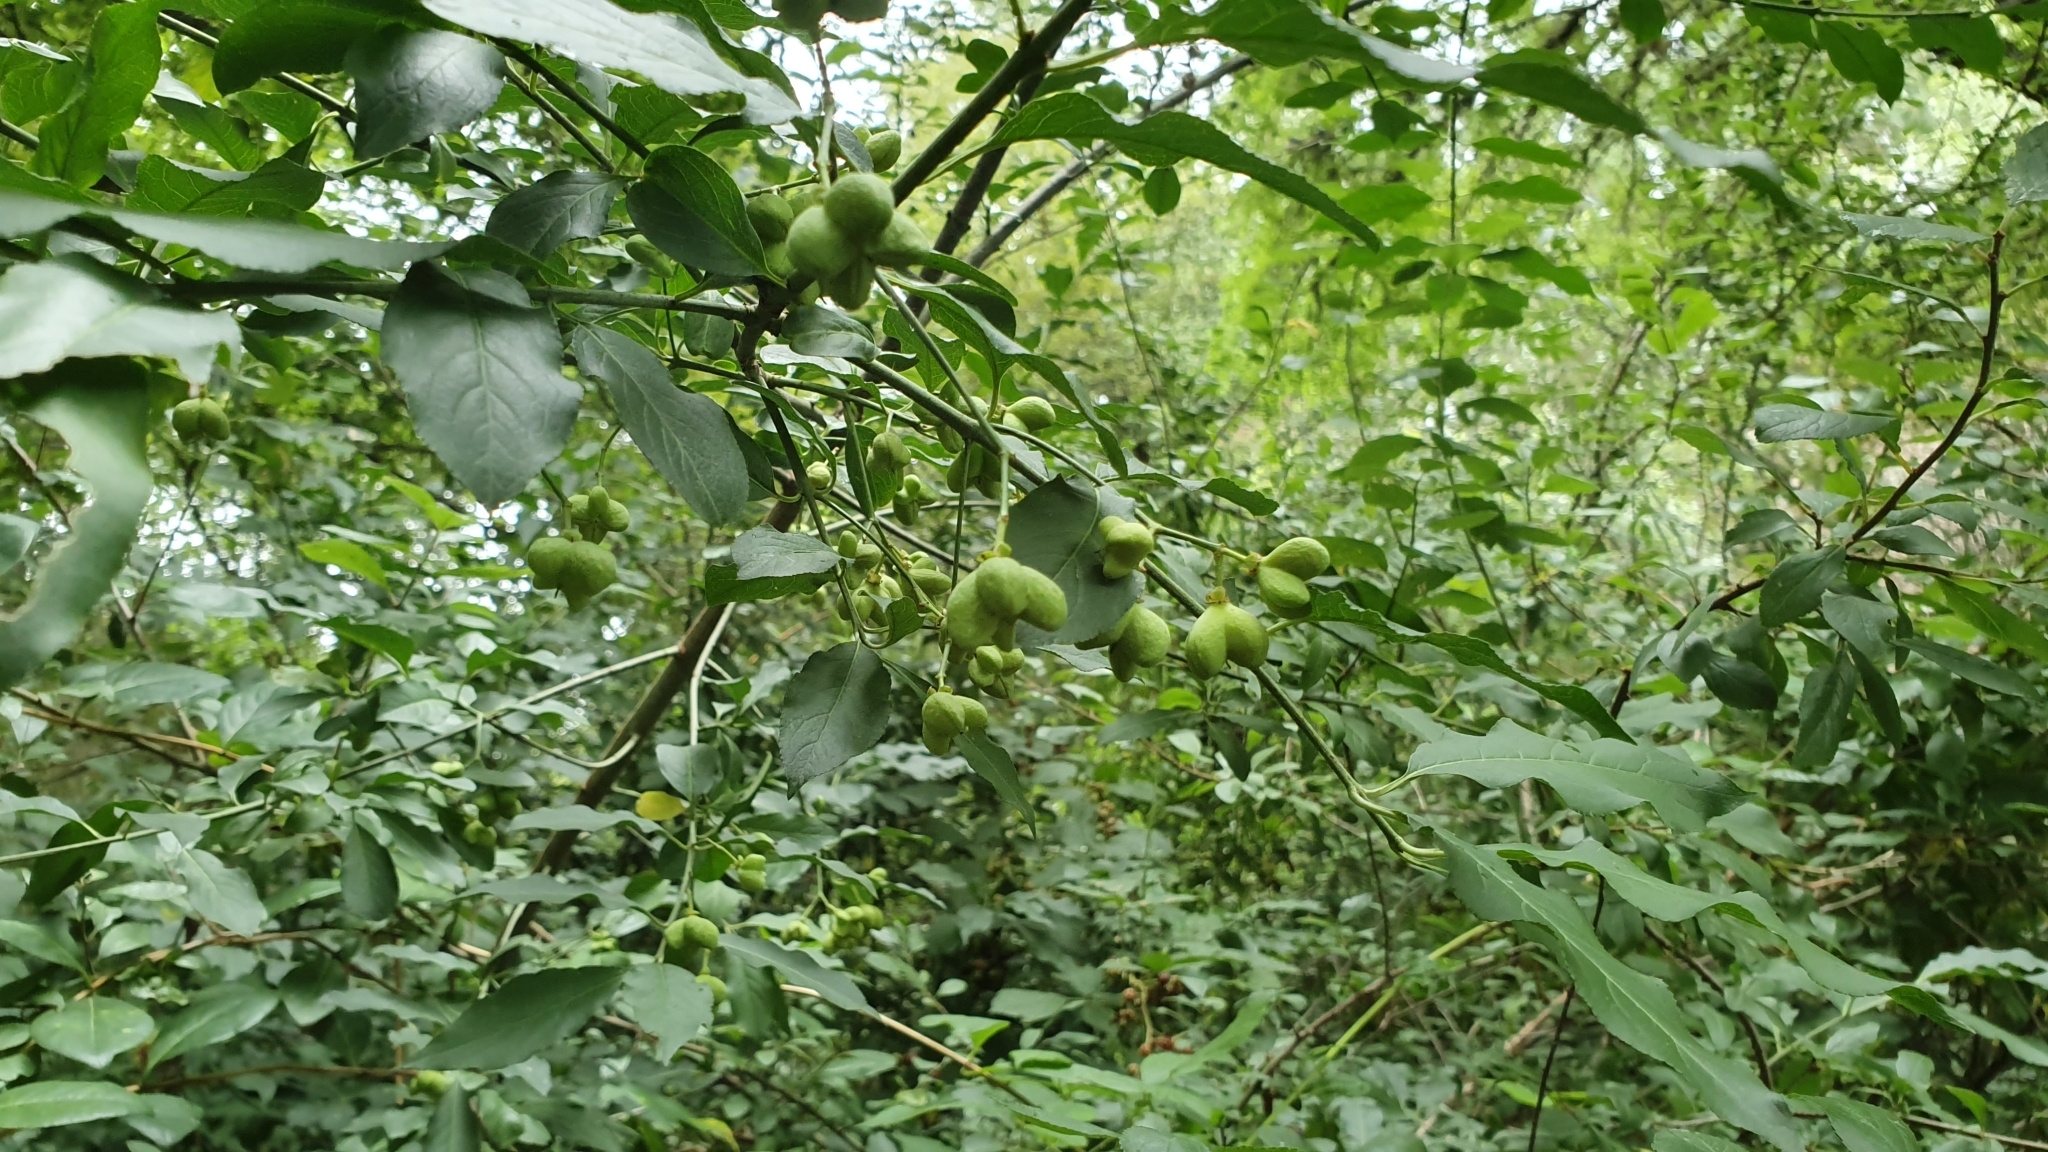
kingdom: Plantae
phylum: Tracheophyta
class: Magnoliopsida
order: Celastrales
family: Celastraceae
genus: Euonymus
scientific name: Euonymus europaeus
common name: Spindle
